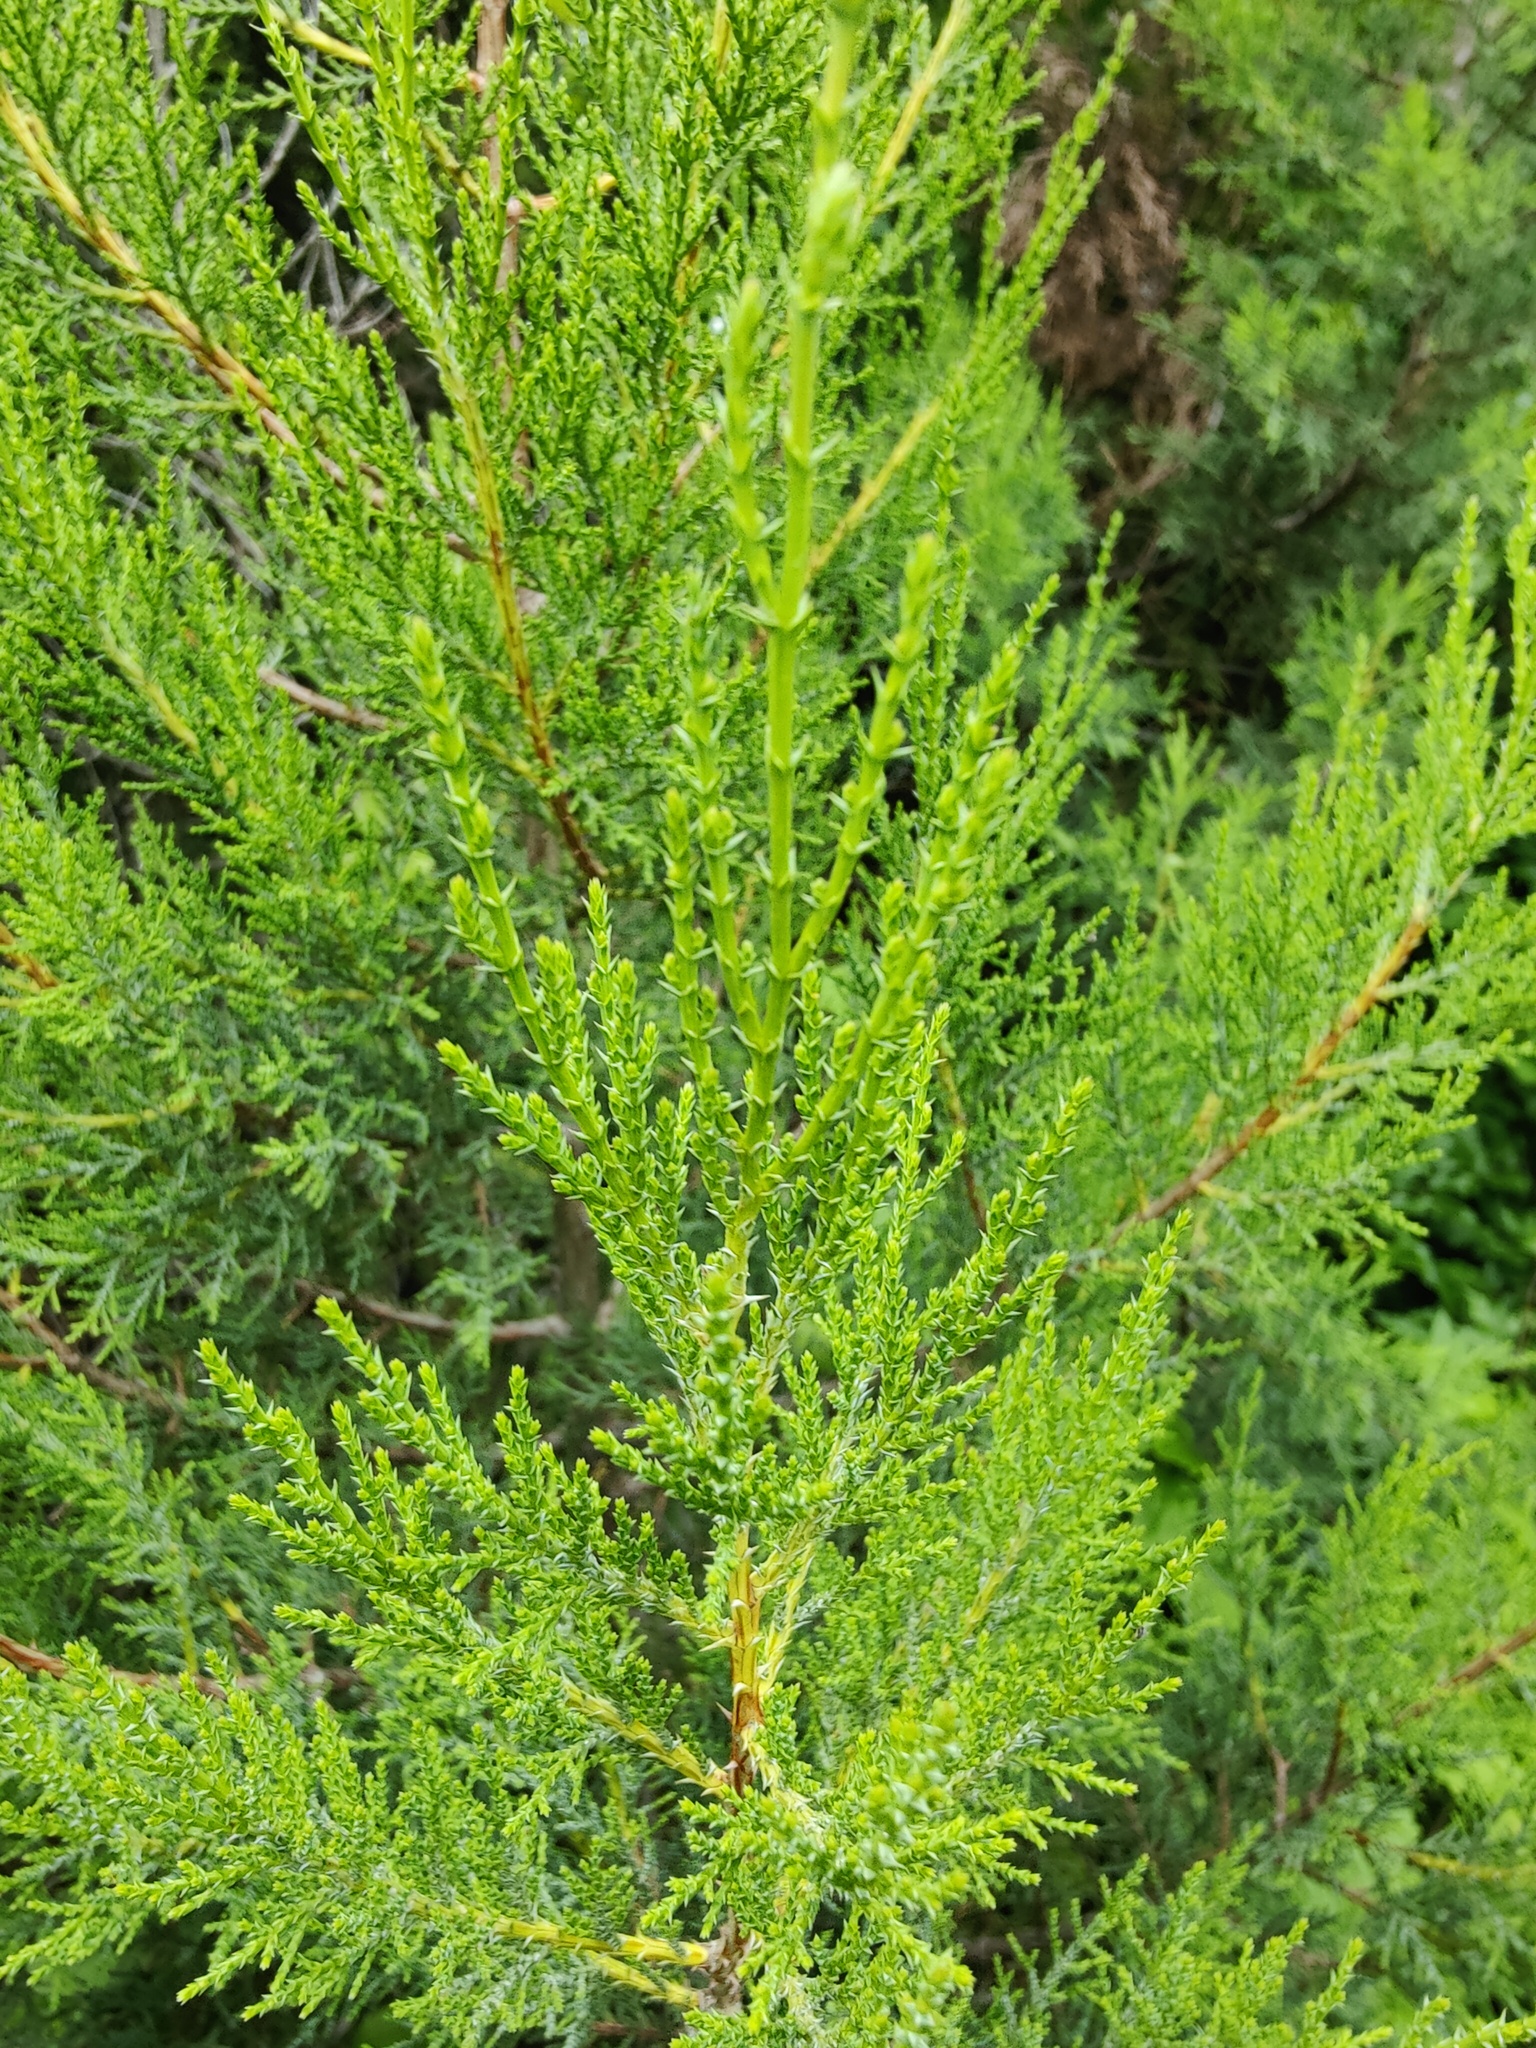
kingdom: Plantae
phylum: Tracheophyta
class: Pinopsida
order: Pinales
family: Cupressaceae
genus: Juniperus
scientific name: Juniperus foetidissima
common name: Stinking juniper
